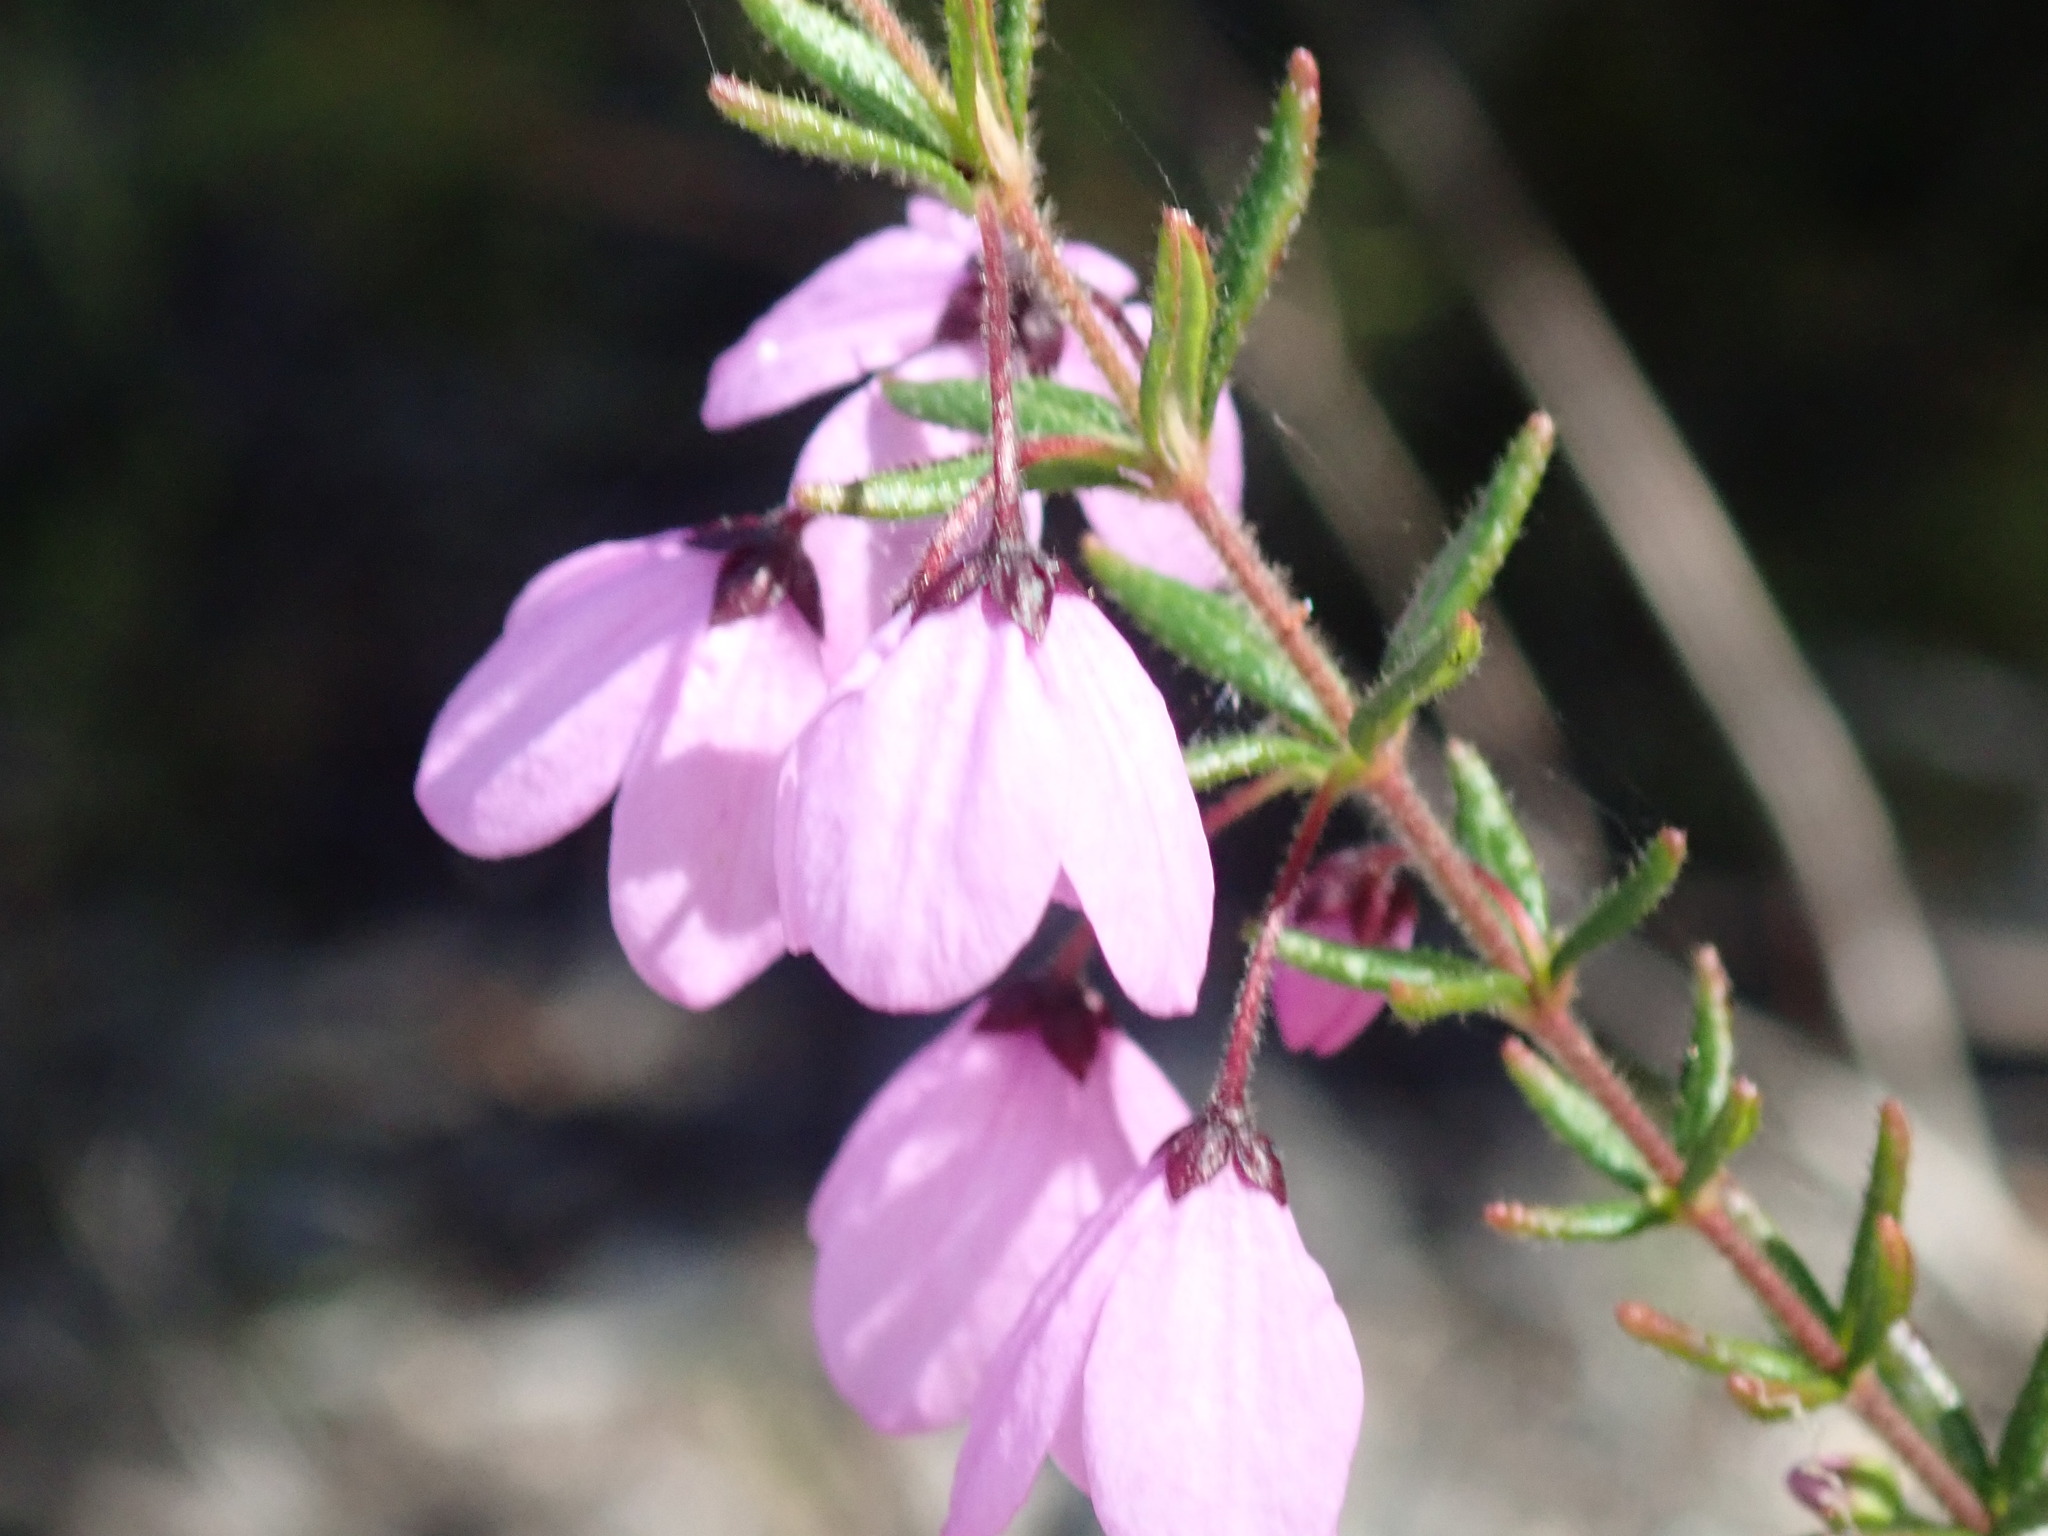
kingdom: Plantae
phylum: Tracheophyta
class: Magnoliopsida
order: Oxalidales
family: Elaeocarpaceae
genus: Tetratheca
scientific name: Tetratheca thymifolia
